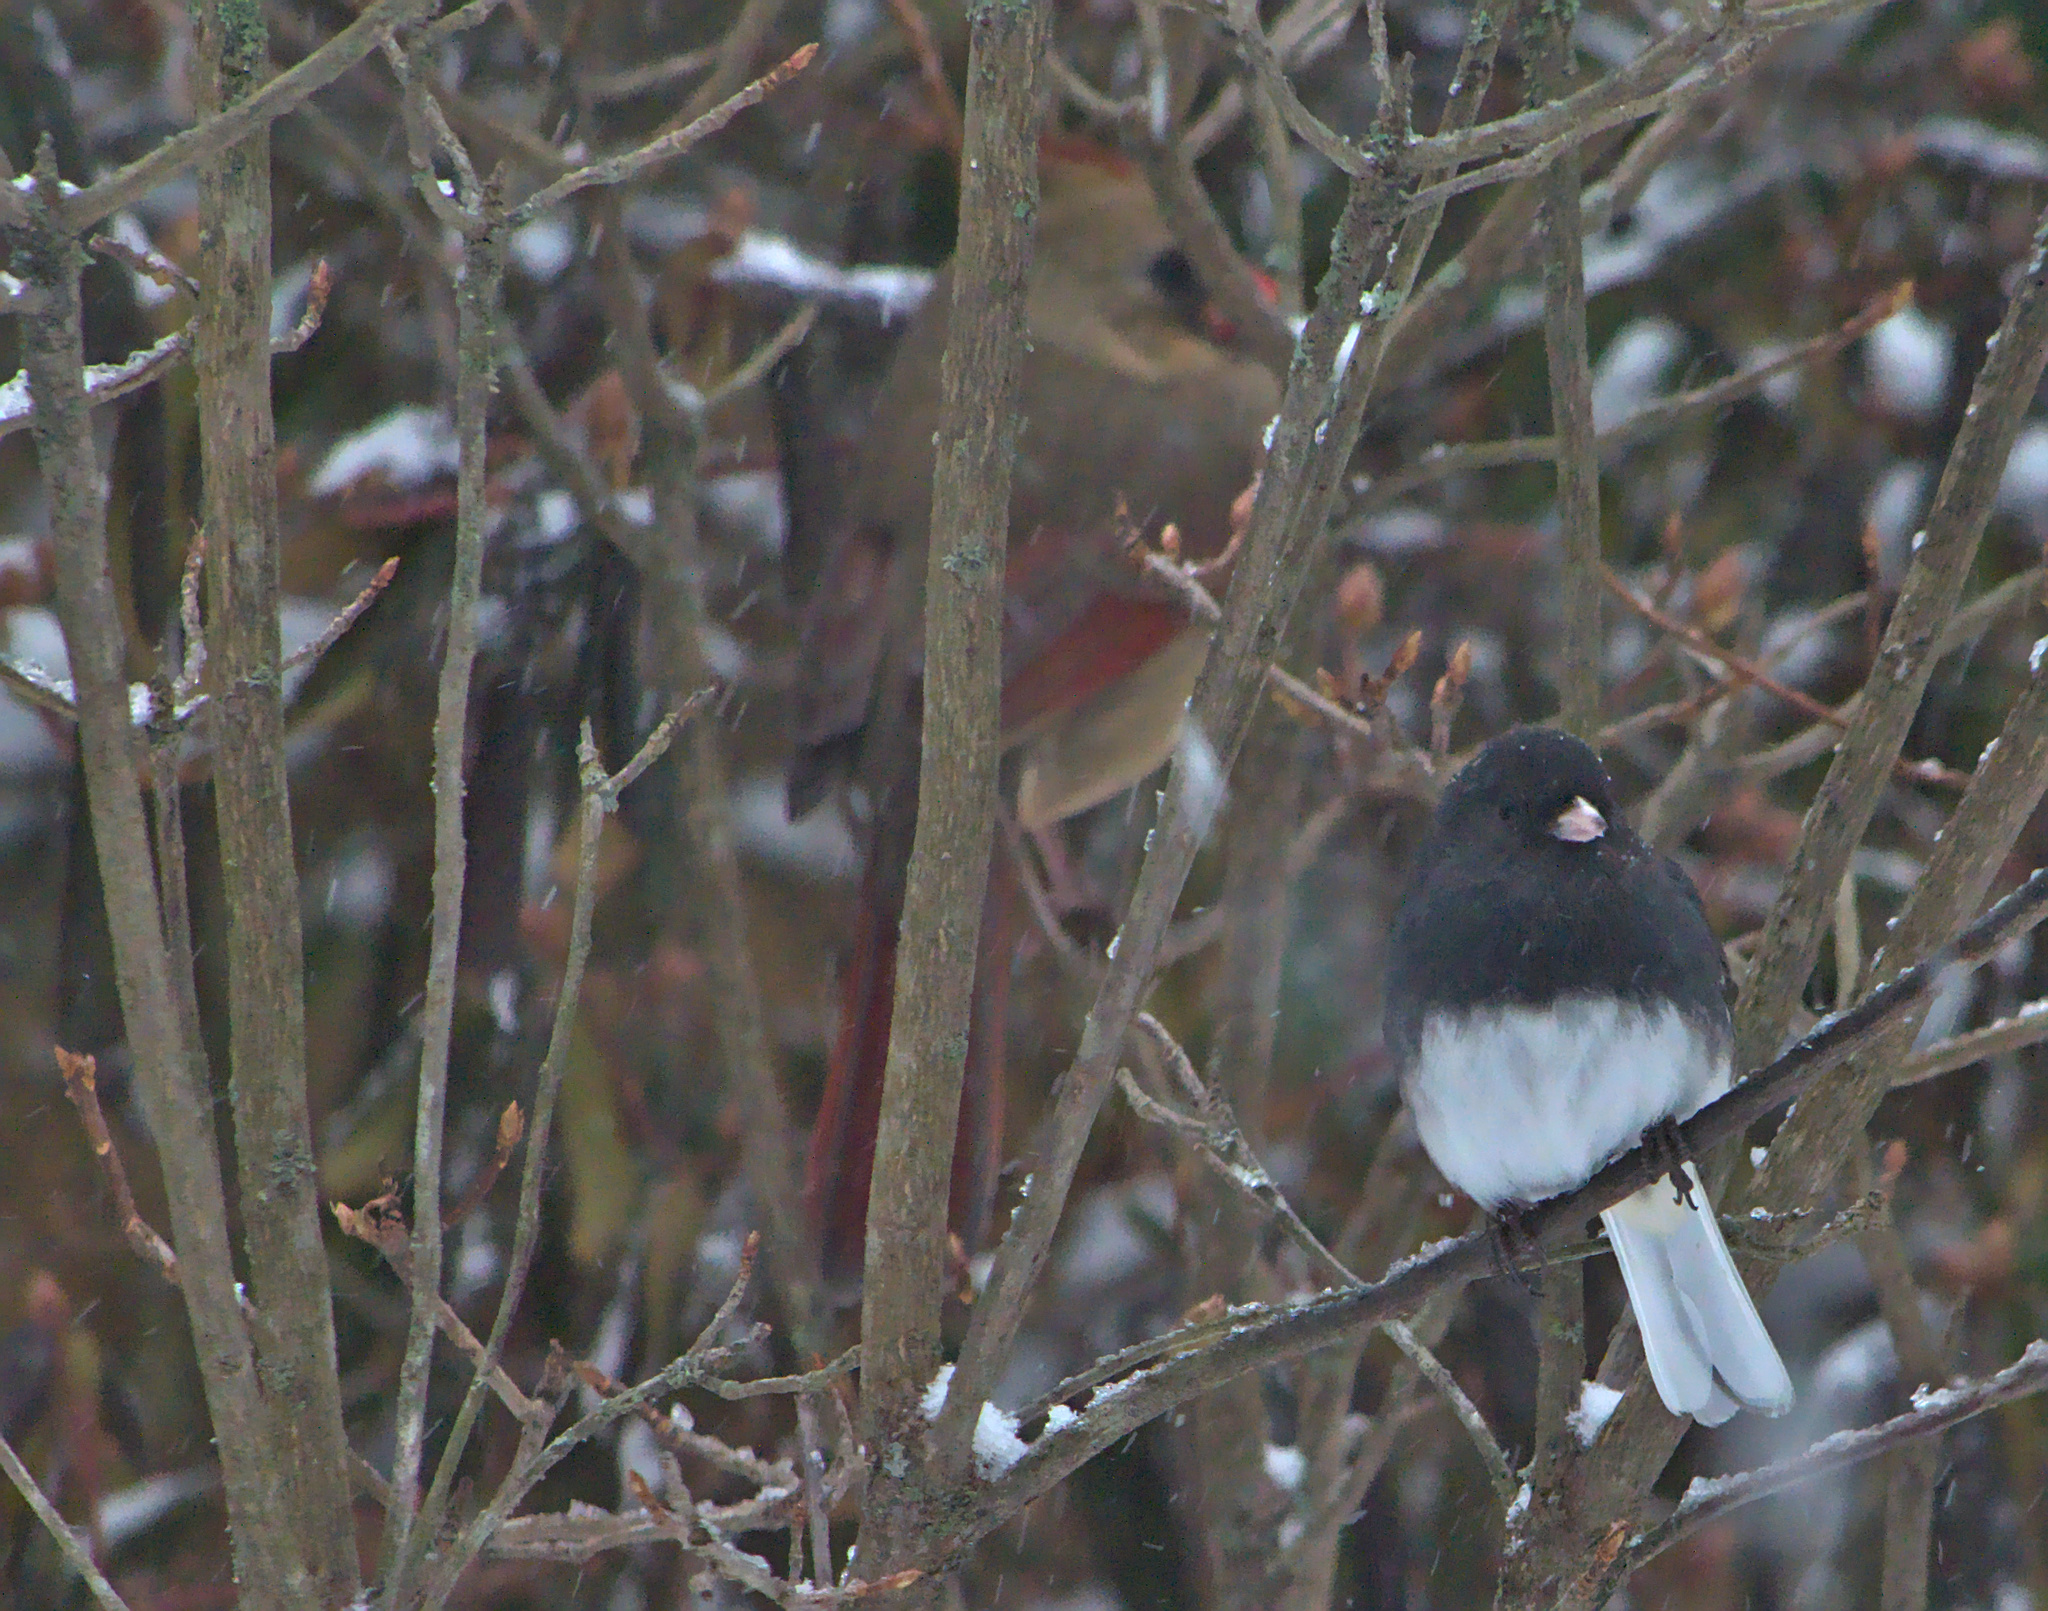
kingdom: Animalia
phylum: Chordata
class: Aves
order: Passeriformes
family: Passerellidae
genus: Junco
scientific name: Junco hyemalis
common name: Dark-eyed junco
